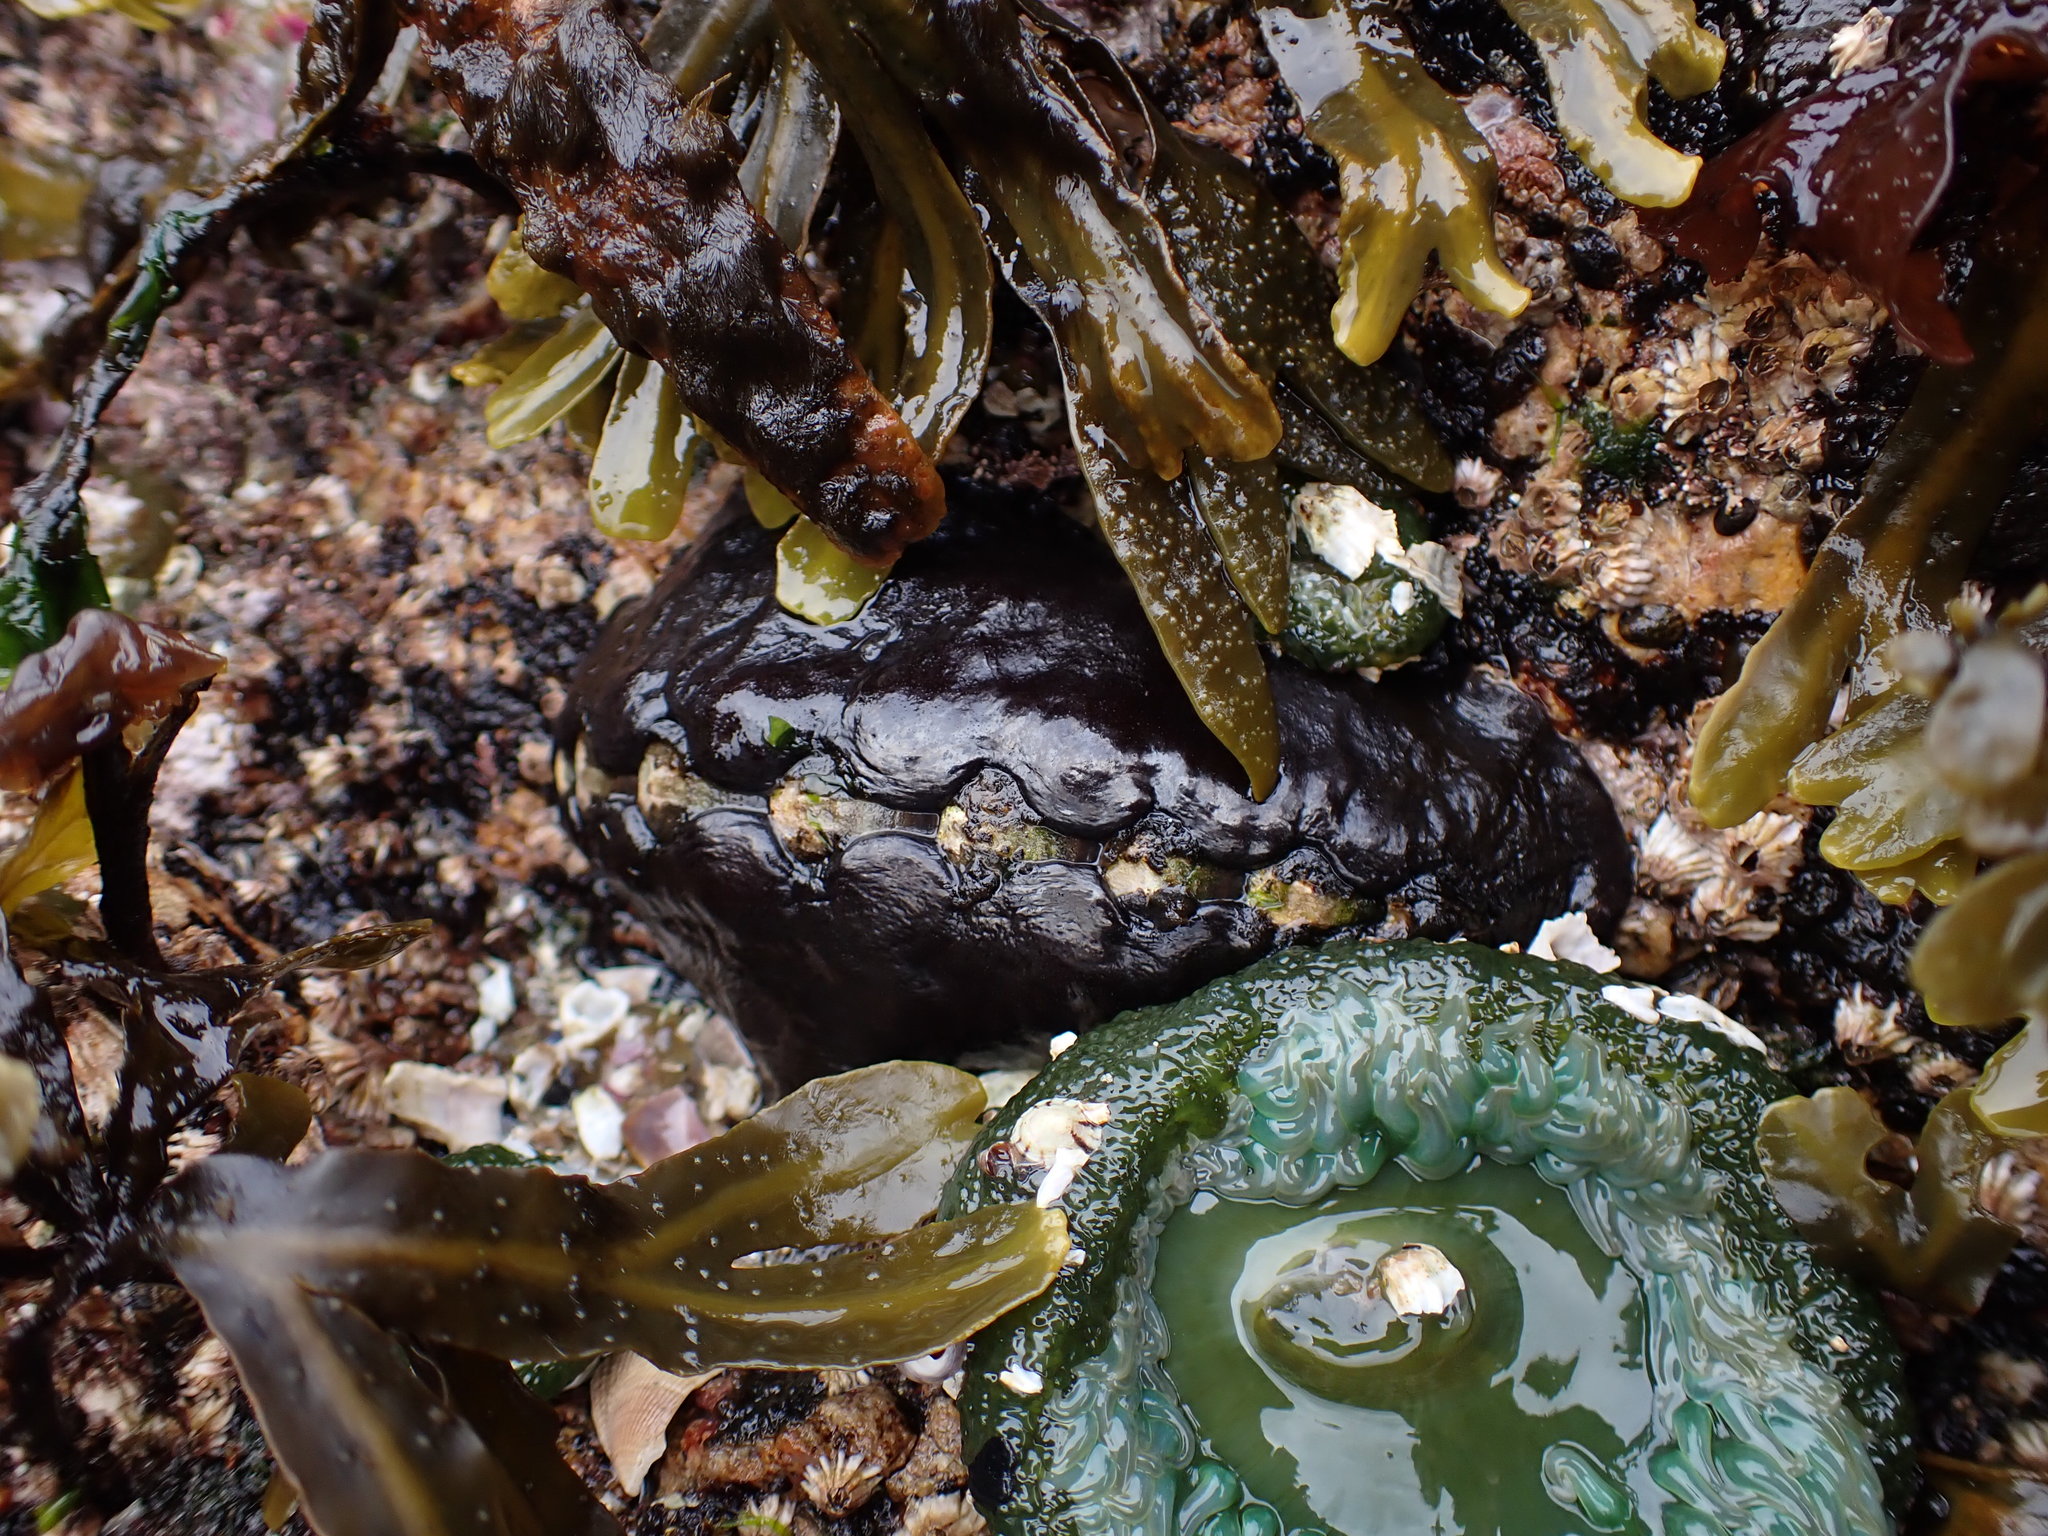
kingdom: Animalia
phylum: Mollusca
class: Polyplacophora
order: Chitonida
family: Mopaliidae
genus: Katharina
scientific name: Katharina tunicata
